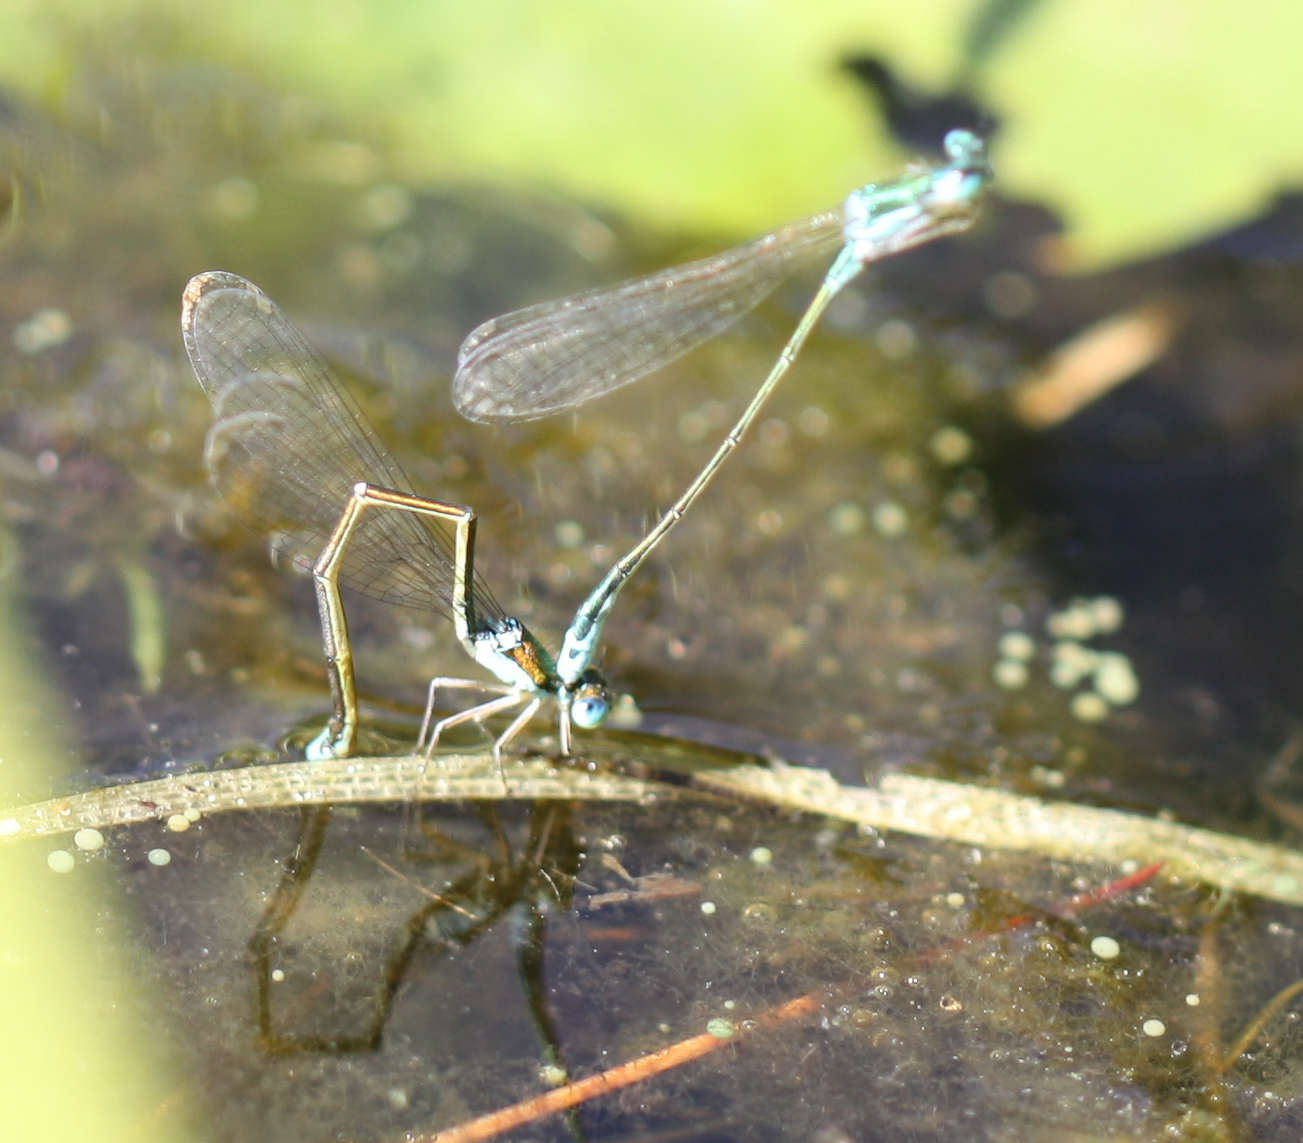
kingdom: Animalia
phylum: Arthropoda
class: Insecta
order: Odonata
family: Coenagrionidae
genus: Nehalennia
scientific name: Nehalennia irene
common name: Sedge sprite
